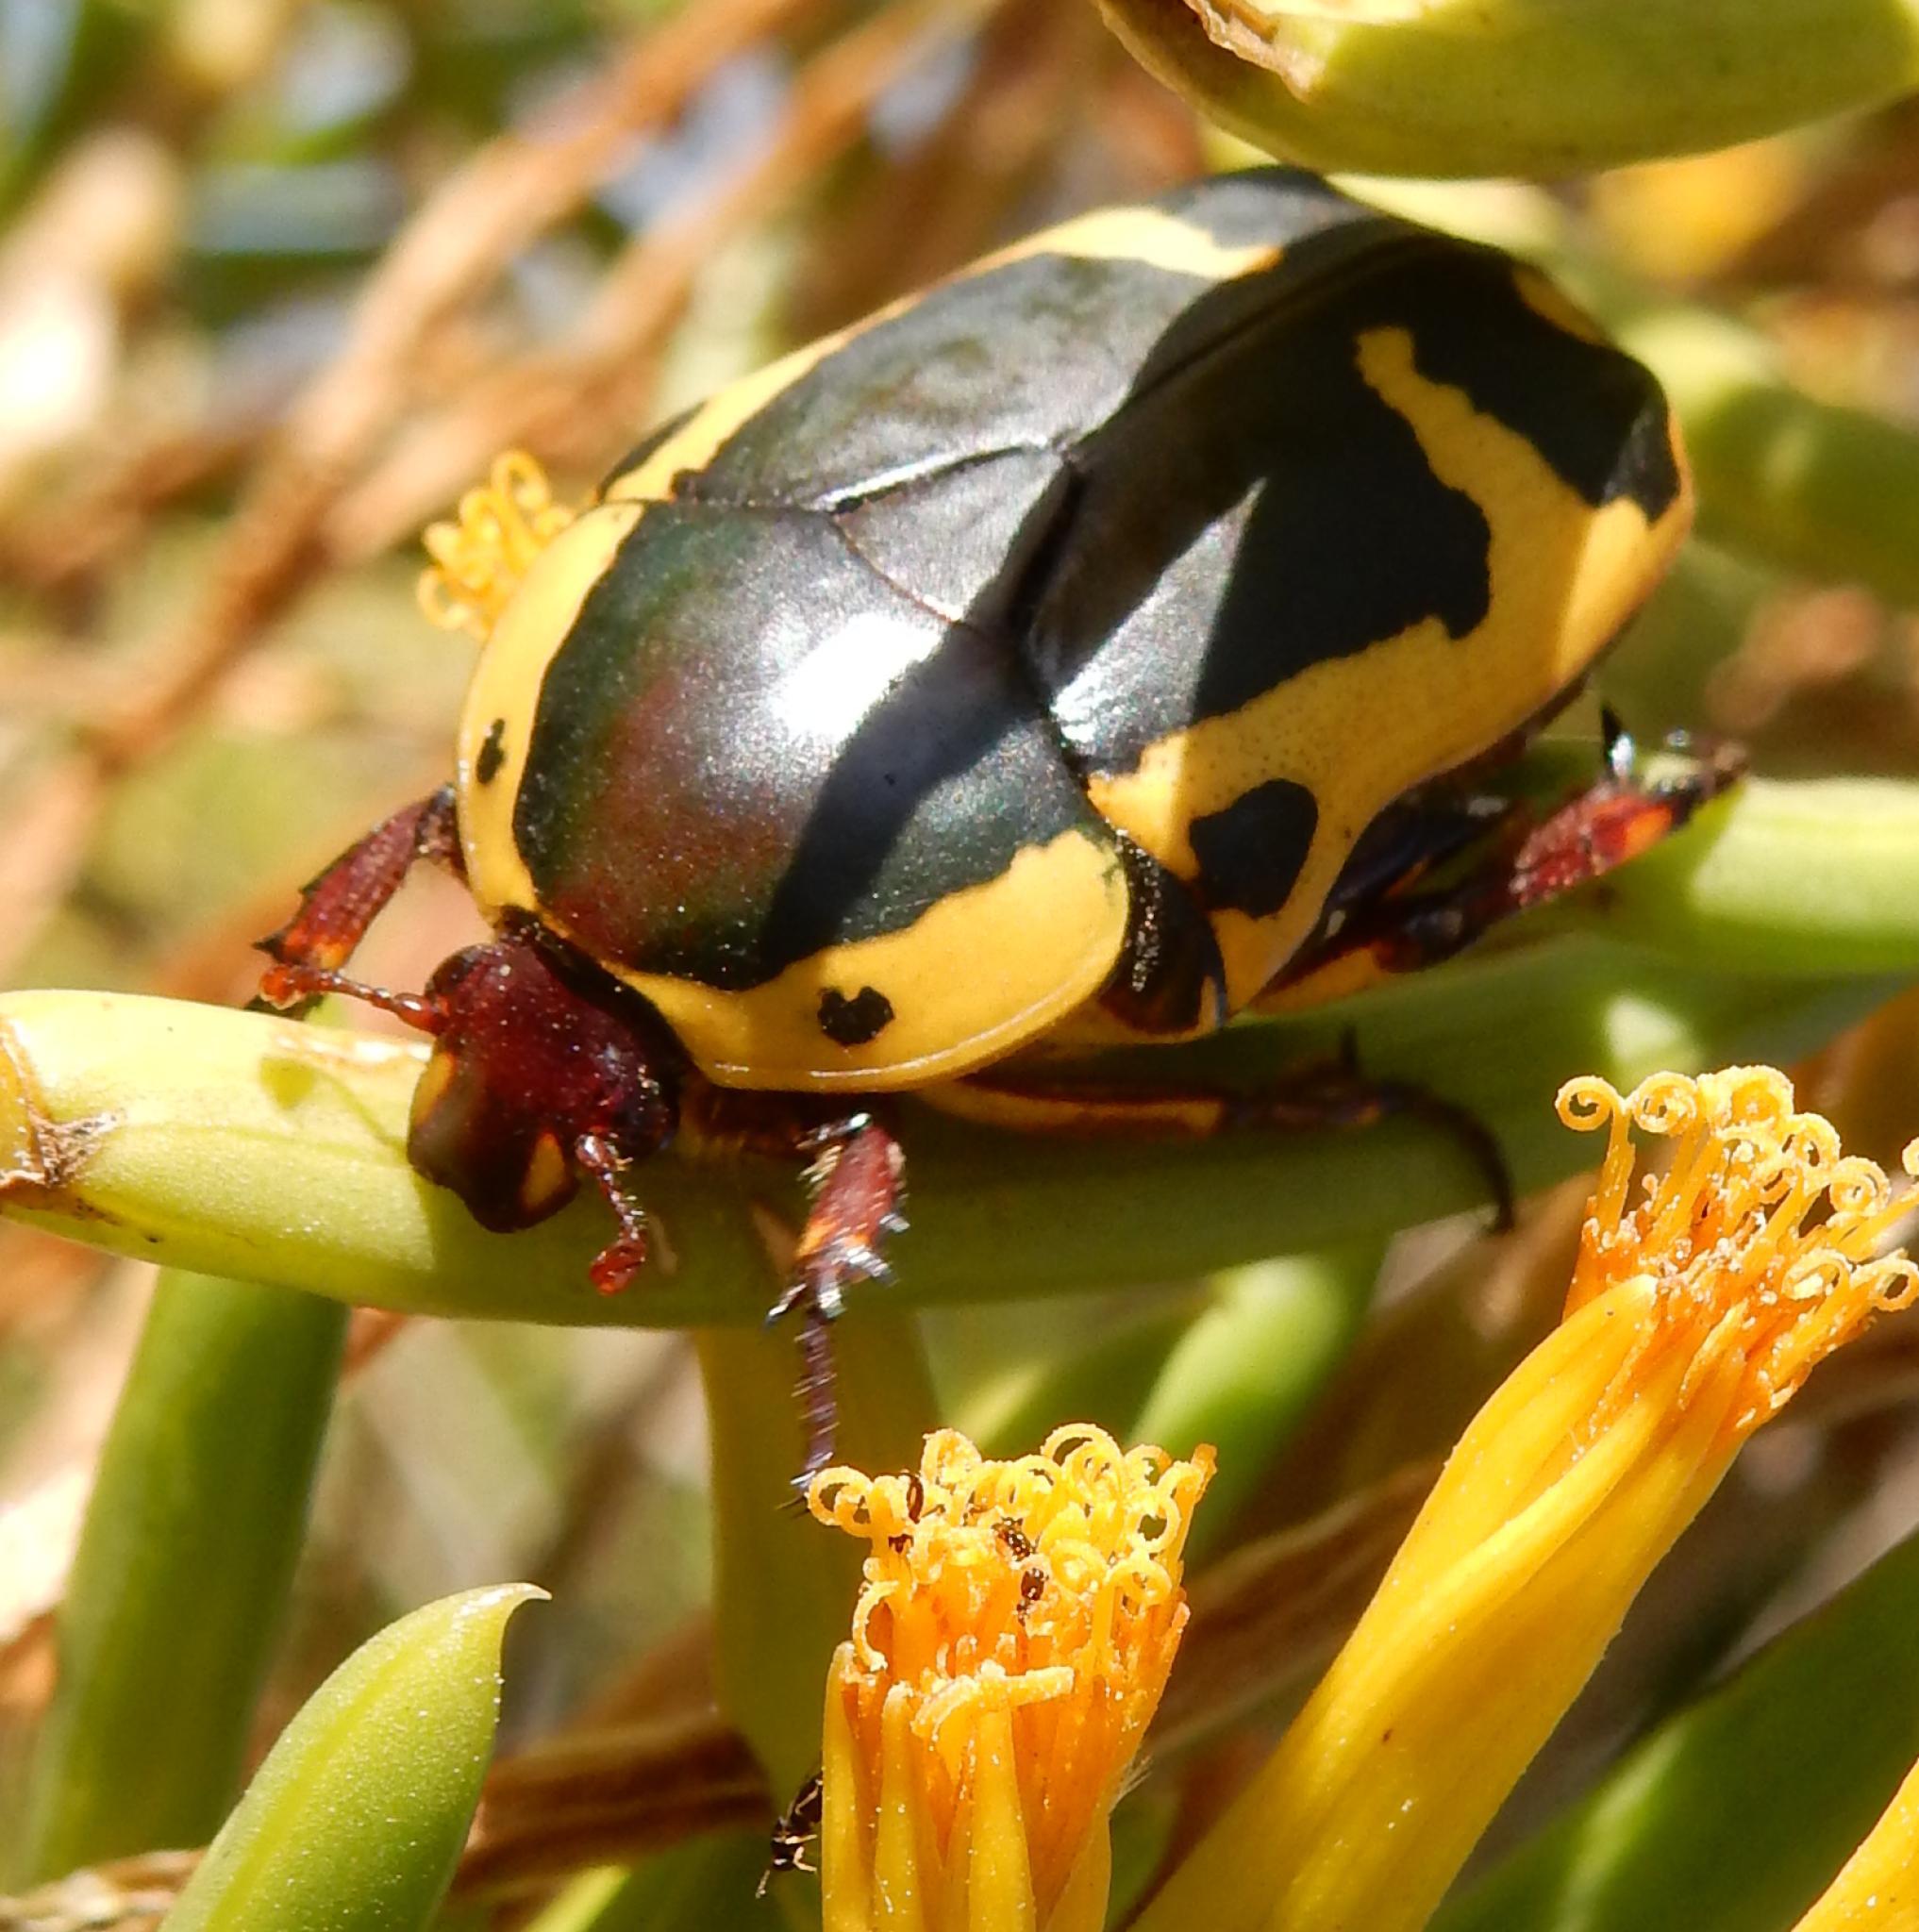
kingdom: Animalia
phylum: Arthropoda
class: Insecta
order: Coleoptera
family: Scarabaeidae
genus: Pachnoda
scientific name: Pachnoda sinuata
